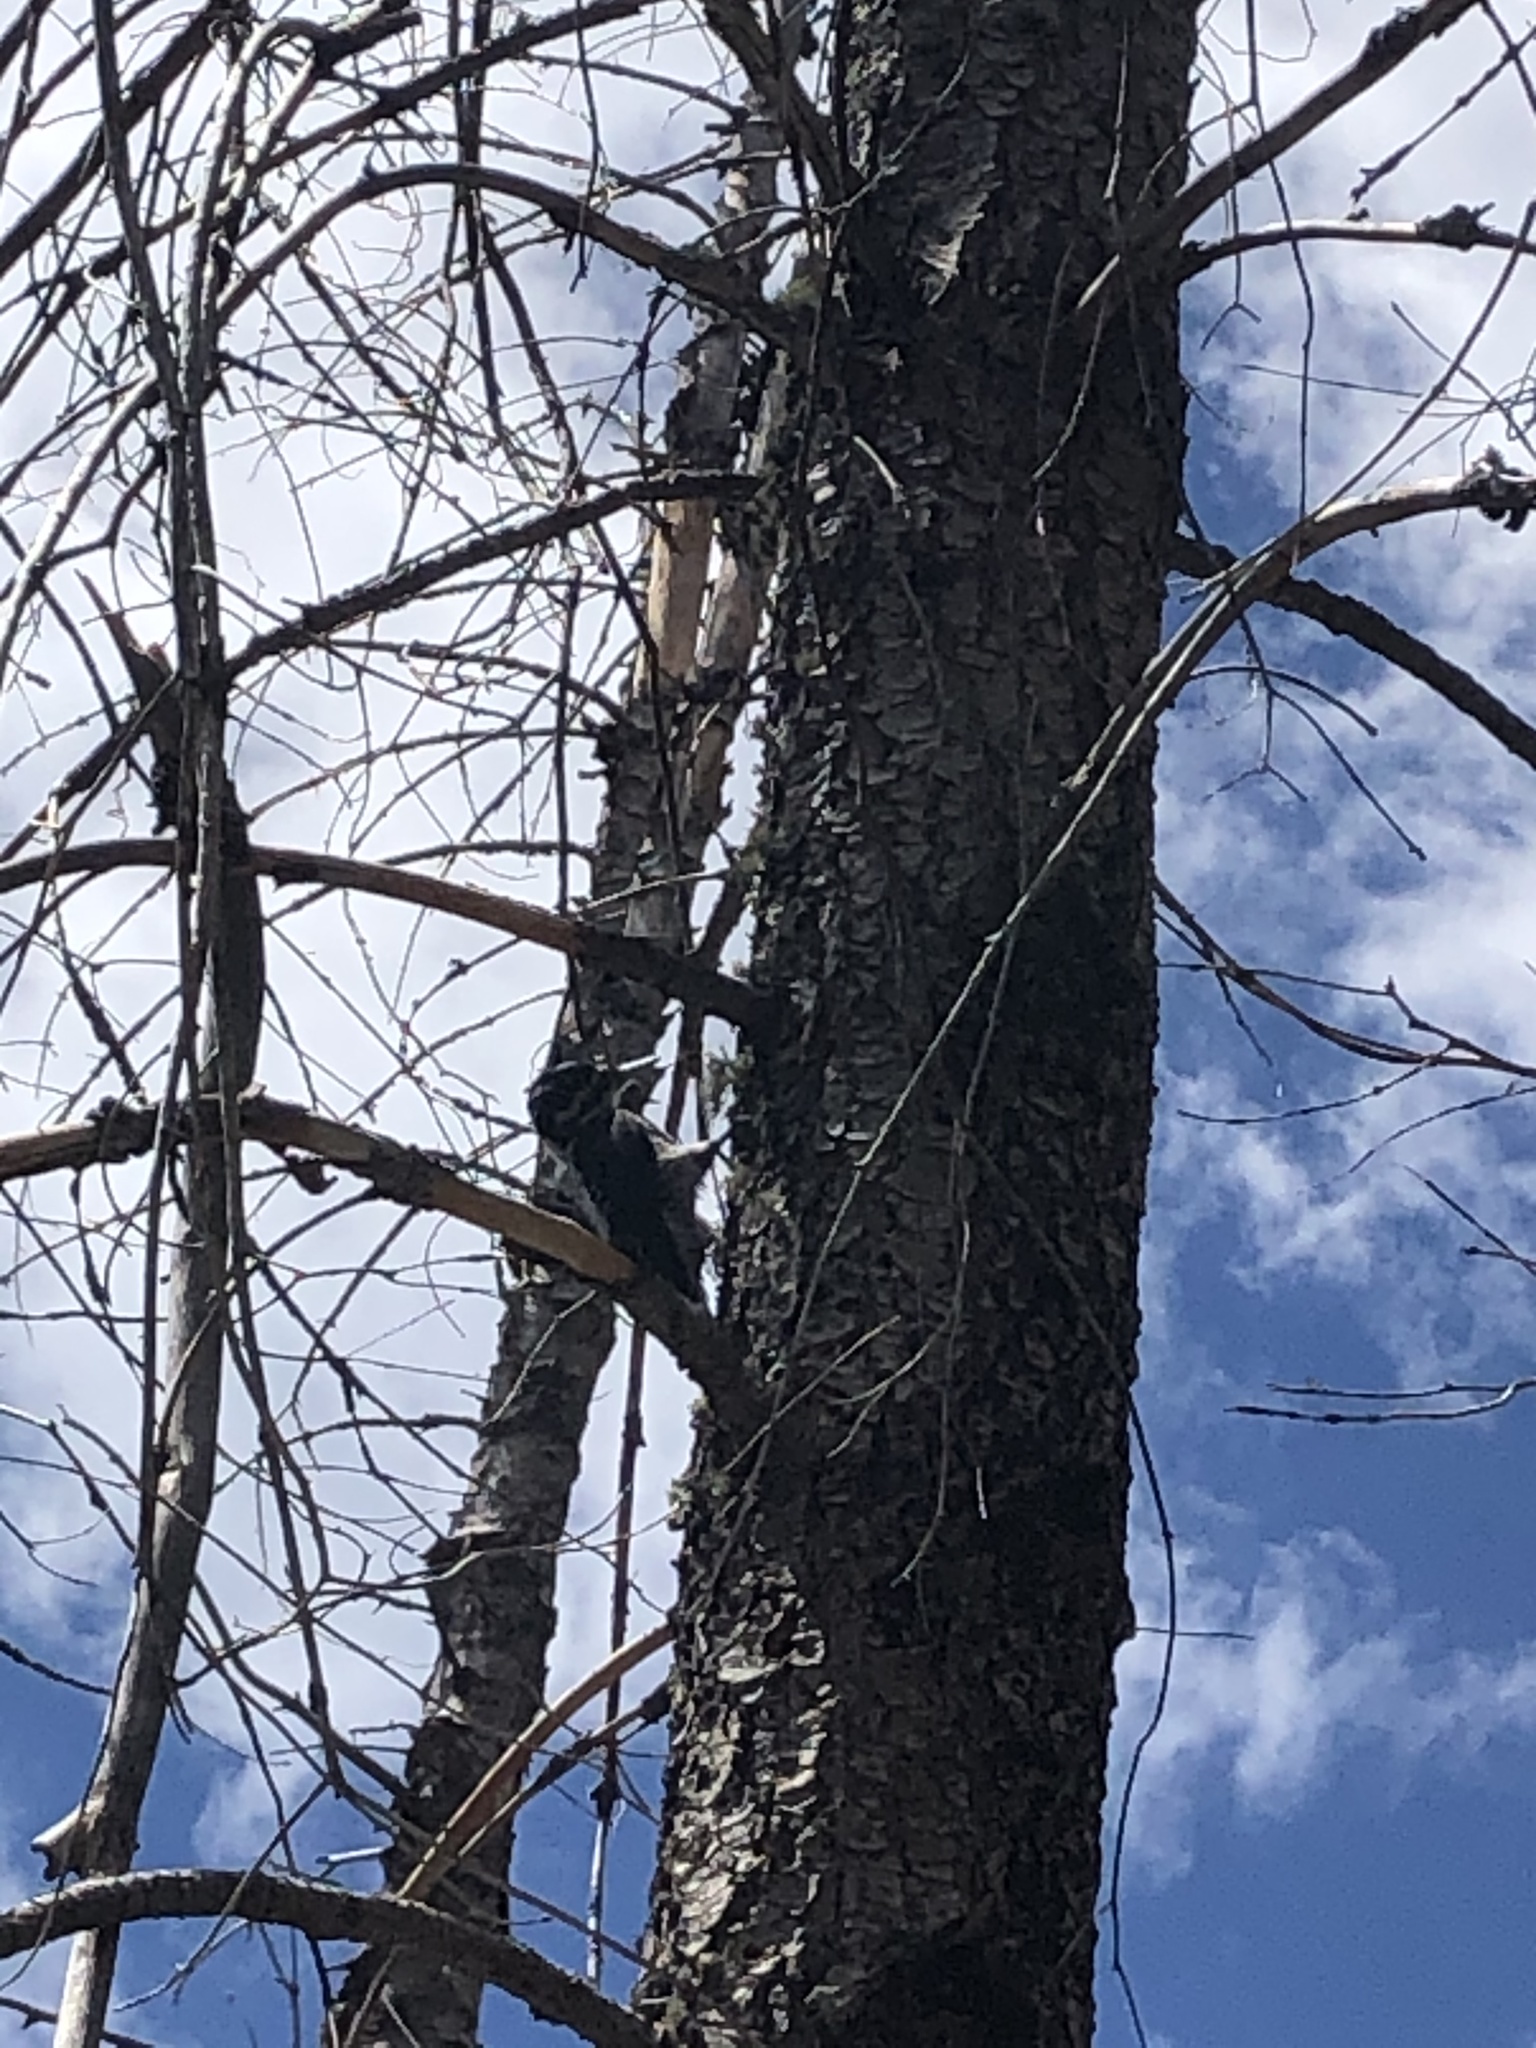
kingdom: Animalia
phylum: Chordata
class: Aves
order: Piciformes
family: Picidae
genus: Leuconotopicus
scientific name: Leuconotopicus villosus
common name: Hairy woodpecker
